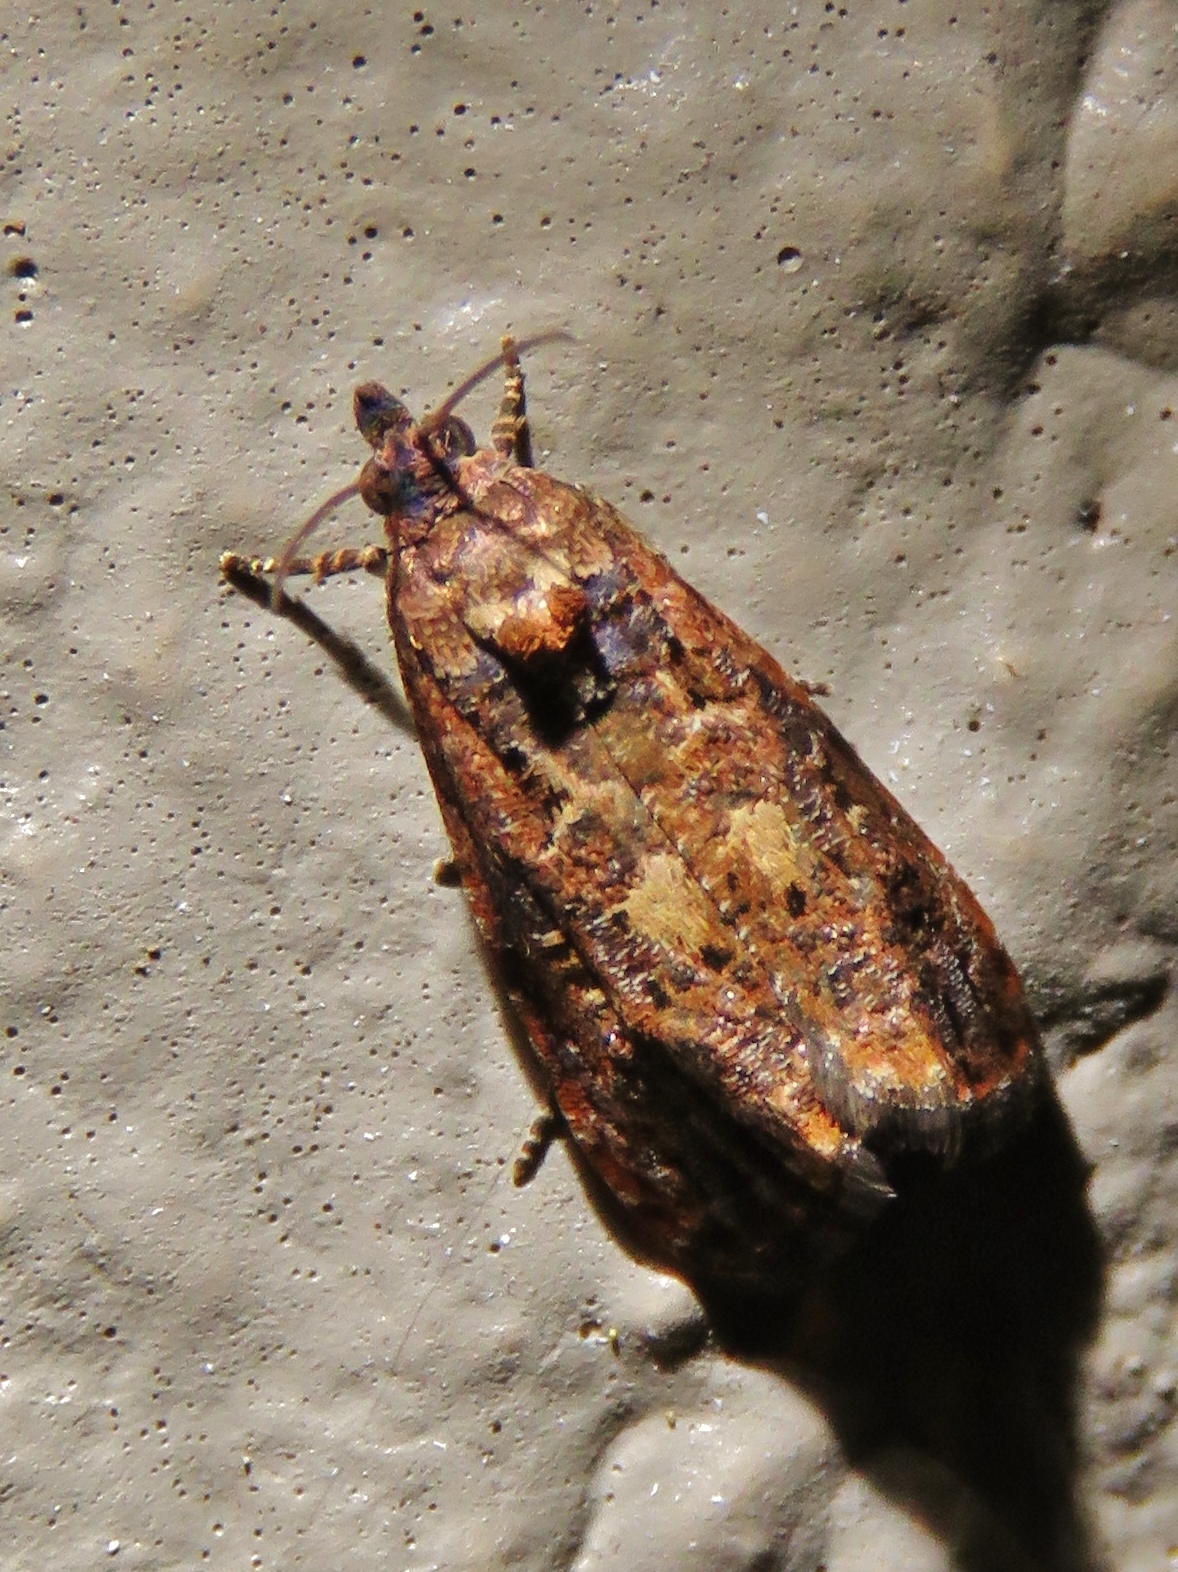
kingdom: Animalia
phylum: Arthropoda
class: Insecta
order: Lepidoptera
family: Tortricidae
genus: Endothenia
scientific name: Endothenia hebesana
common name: Verbena bud moth
